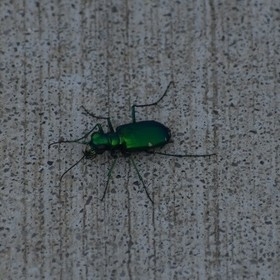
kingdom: Animalia
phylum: Arthropoda
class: Insecta
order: Coleoptera
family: Carabidae
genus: Cicindela
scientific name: Cicindela sexguttata
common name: Six-spotted tiger beetle
